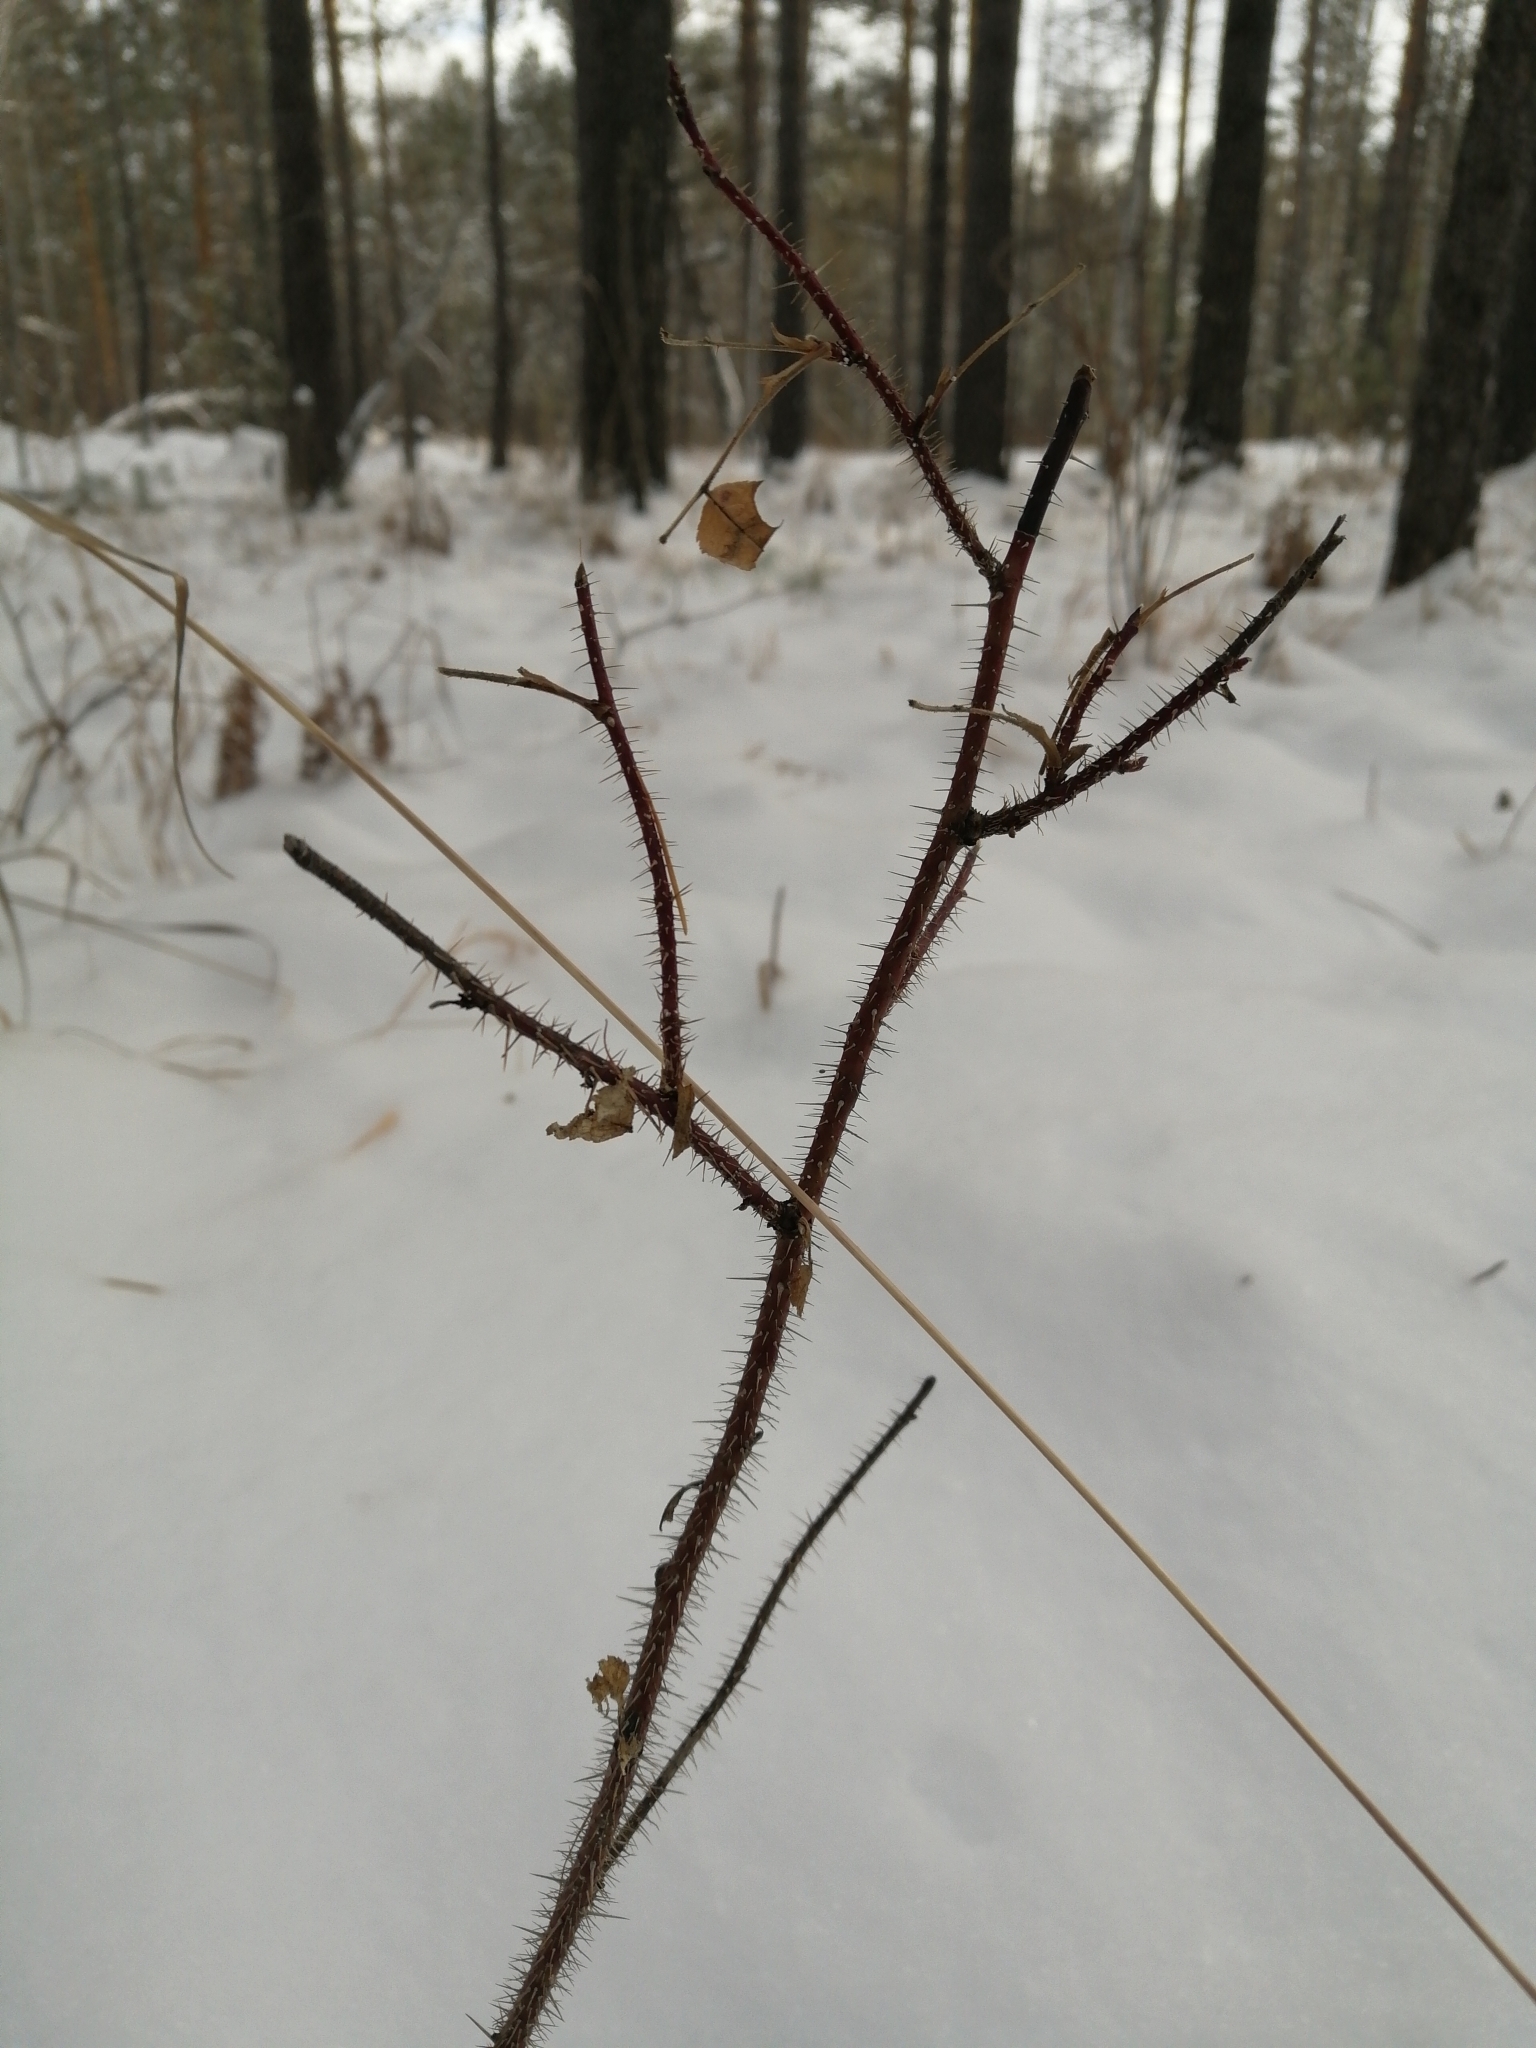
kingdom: Plantae
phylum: Tracheophyta
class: Magnoliopsida
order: Rosales
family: Rosaceae
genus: Rosa
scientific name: Rosa acicularis
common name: Prickly rose
